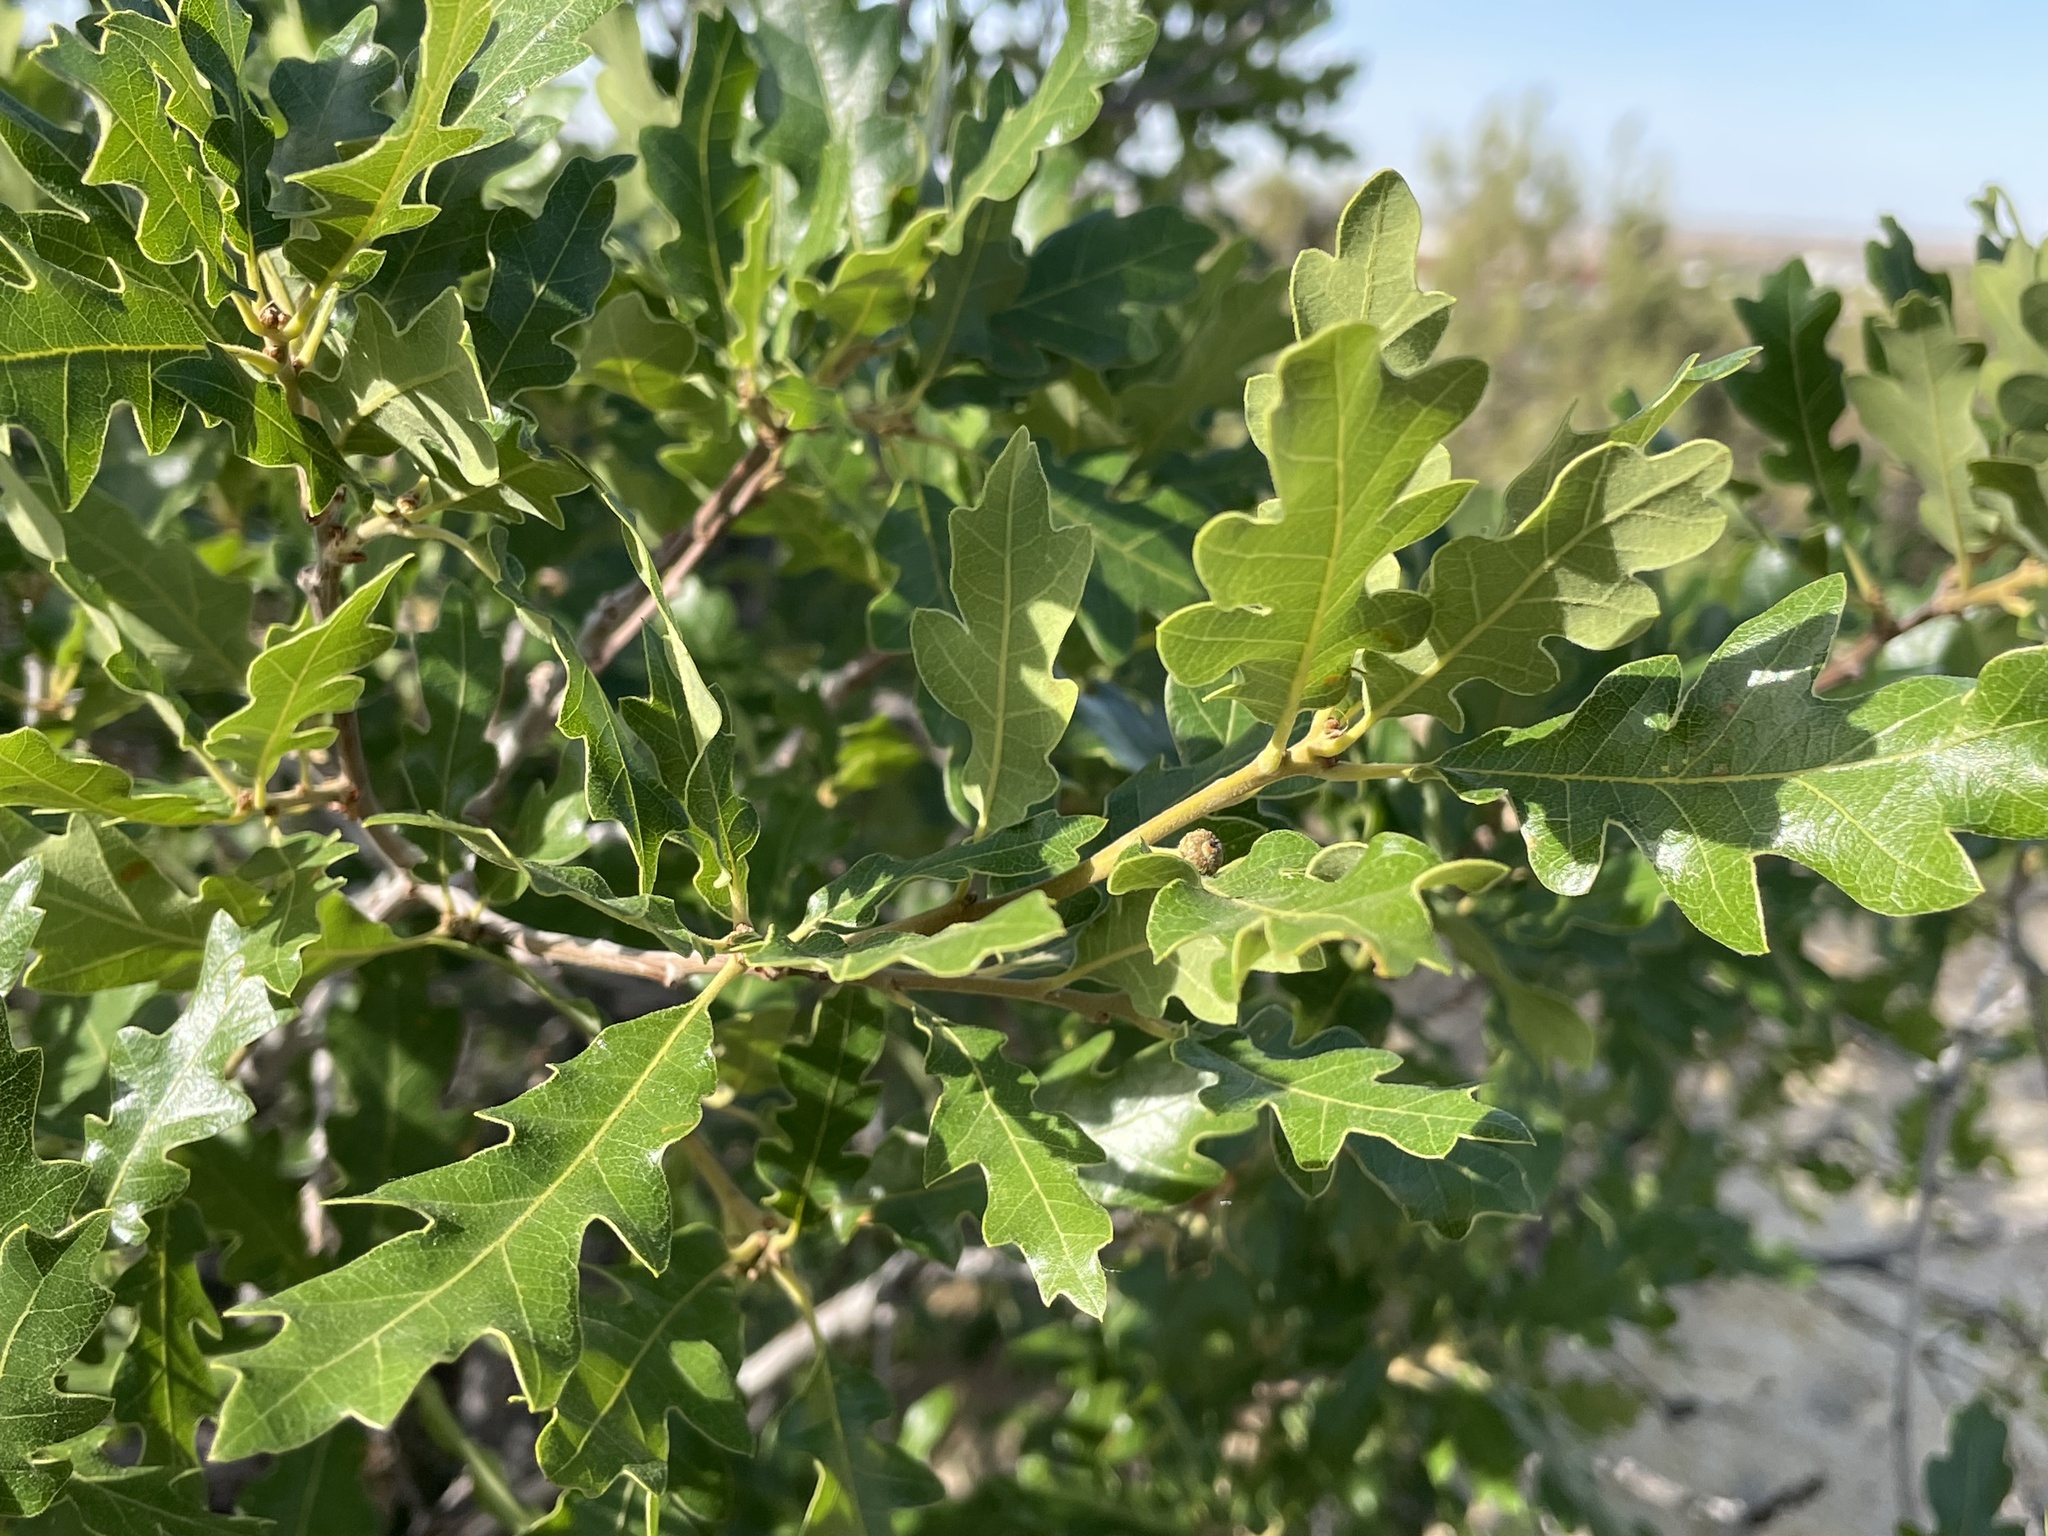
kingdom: Plantae
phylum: Tracheophyta
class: Magnoliopsida
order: Fagales
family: Fagaceae
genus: Quercus
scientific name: Quercus gambelii
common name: Gambel oak
